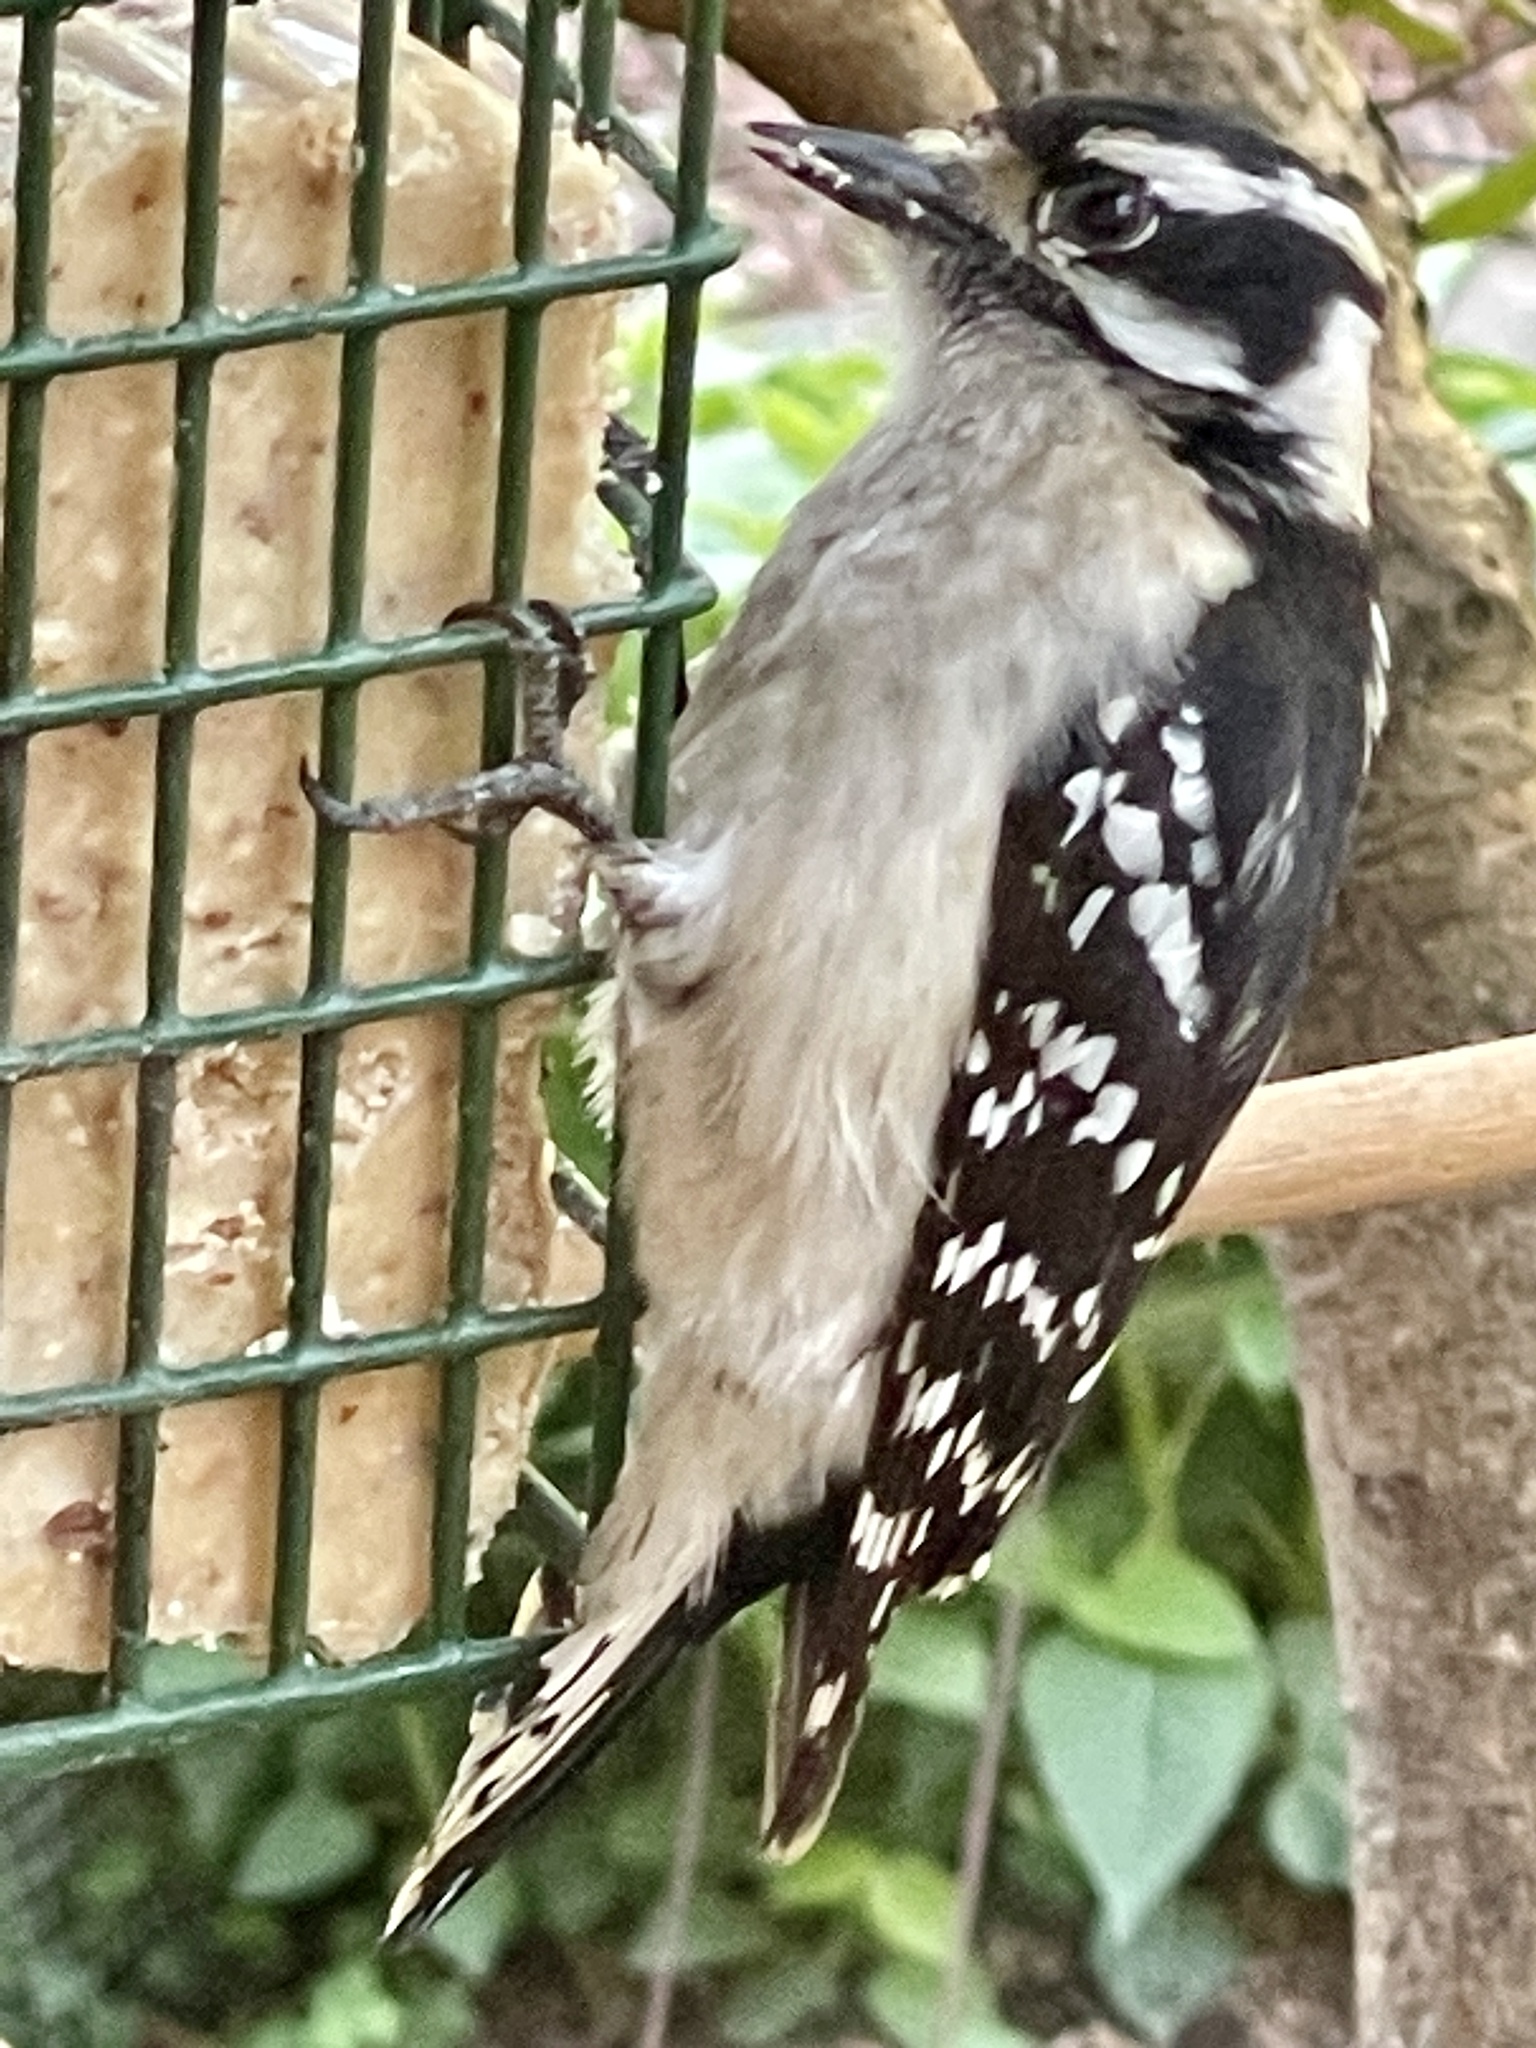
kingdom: Animalia
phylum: Chordata
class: Aves
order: Piciformes
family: Picidae
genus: Dryobates
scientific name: Dryobates pubescens
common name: Downy woodpecker
